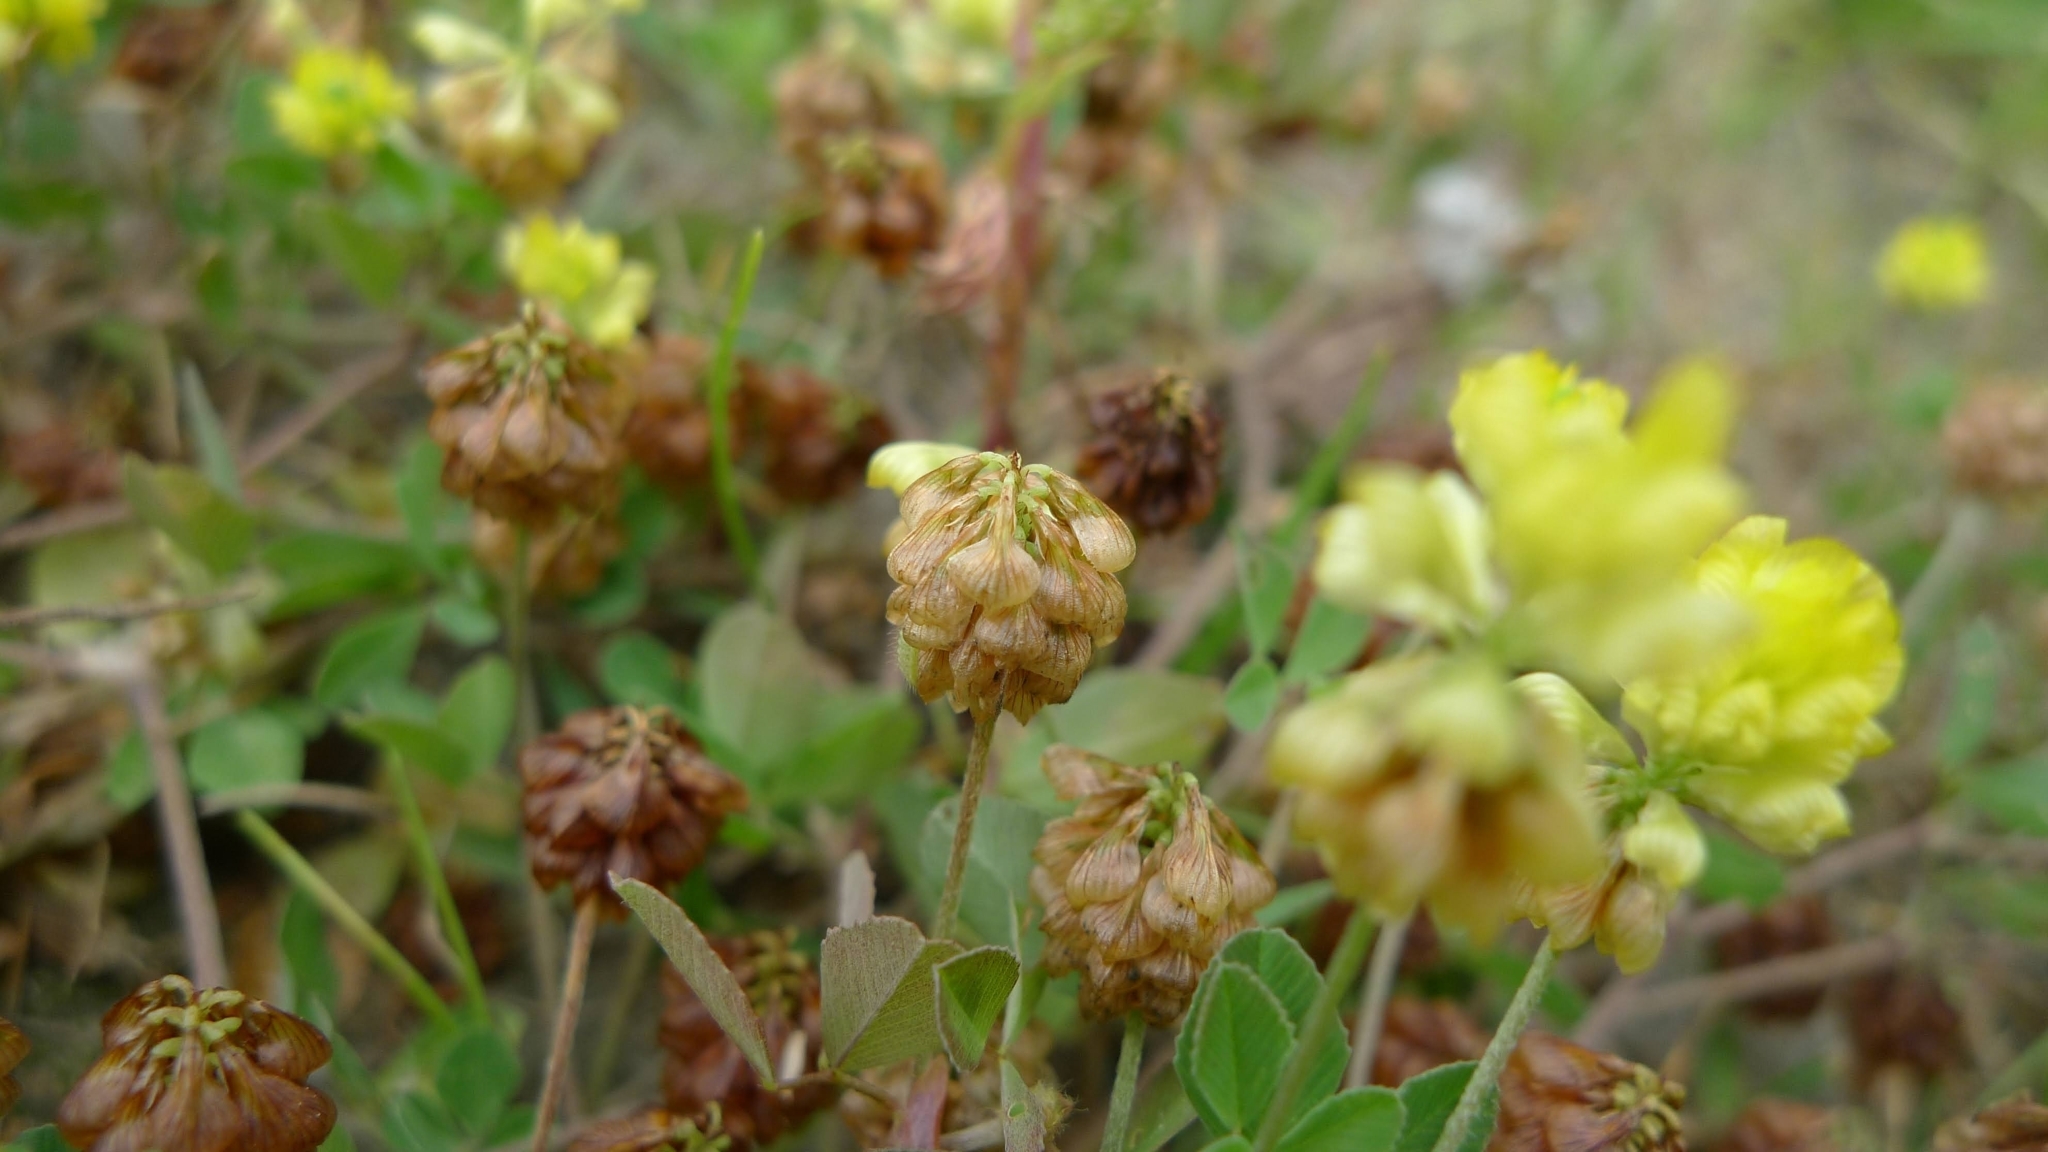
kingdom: Plantae
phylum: Tracheophyta
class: Magnoliopsida
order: Fabales
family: Fabaceae
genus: Trifolium
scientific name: Trifolium campestre
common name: Field clover
